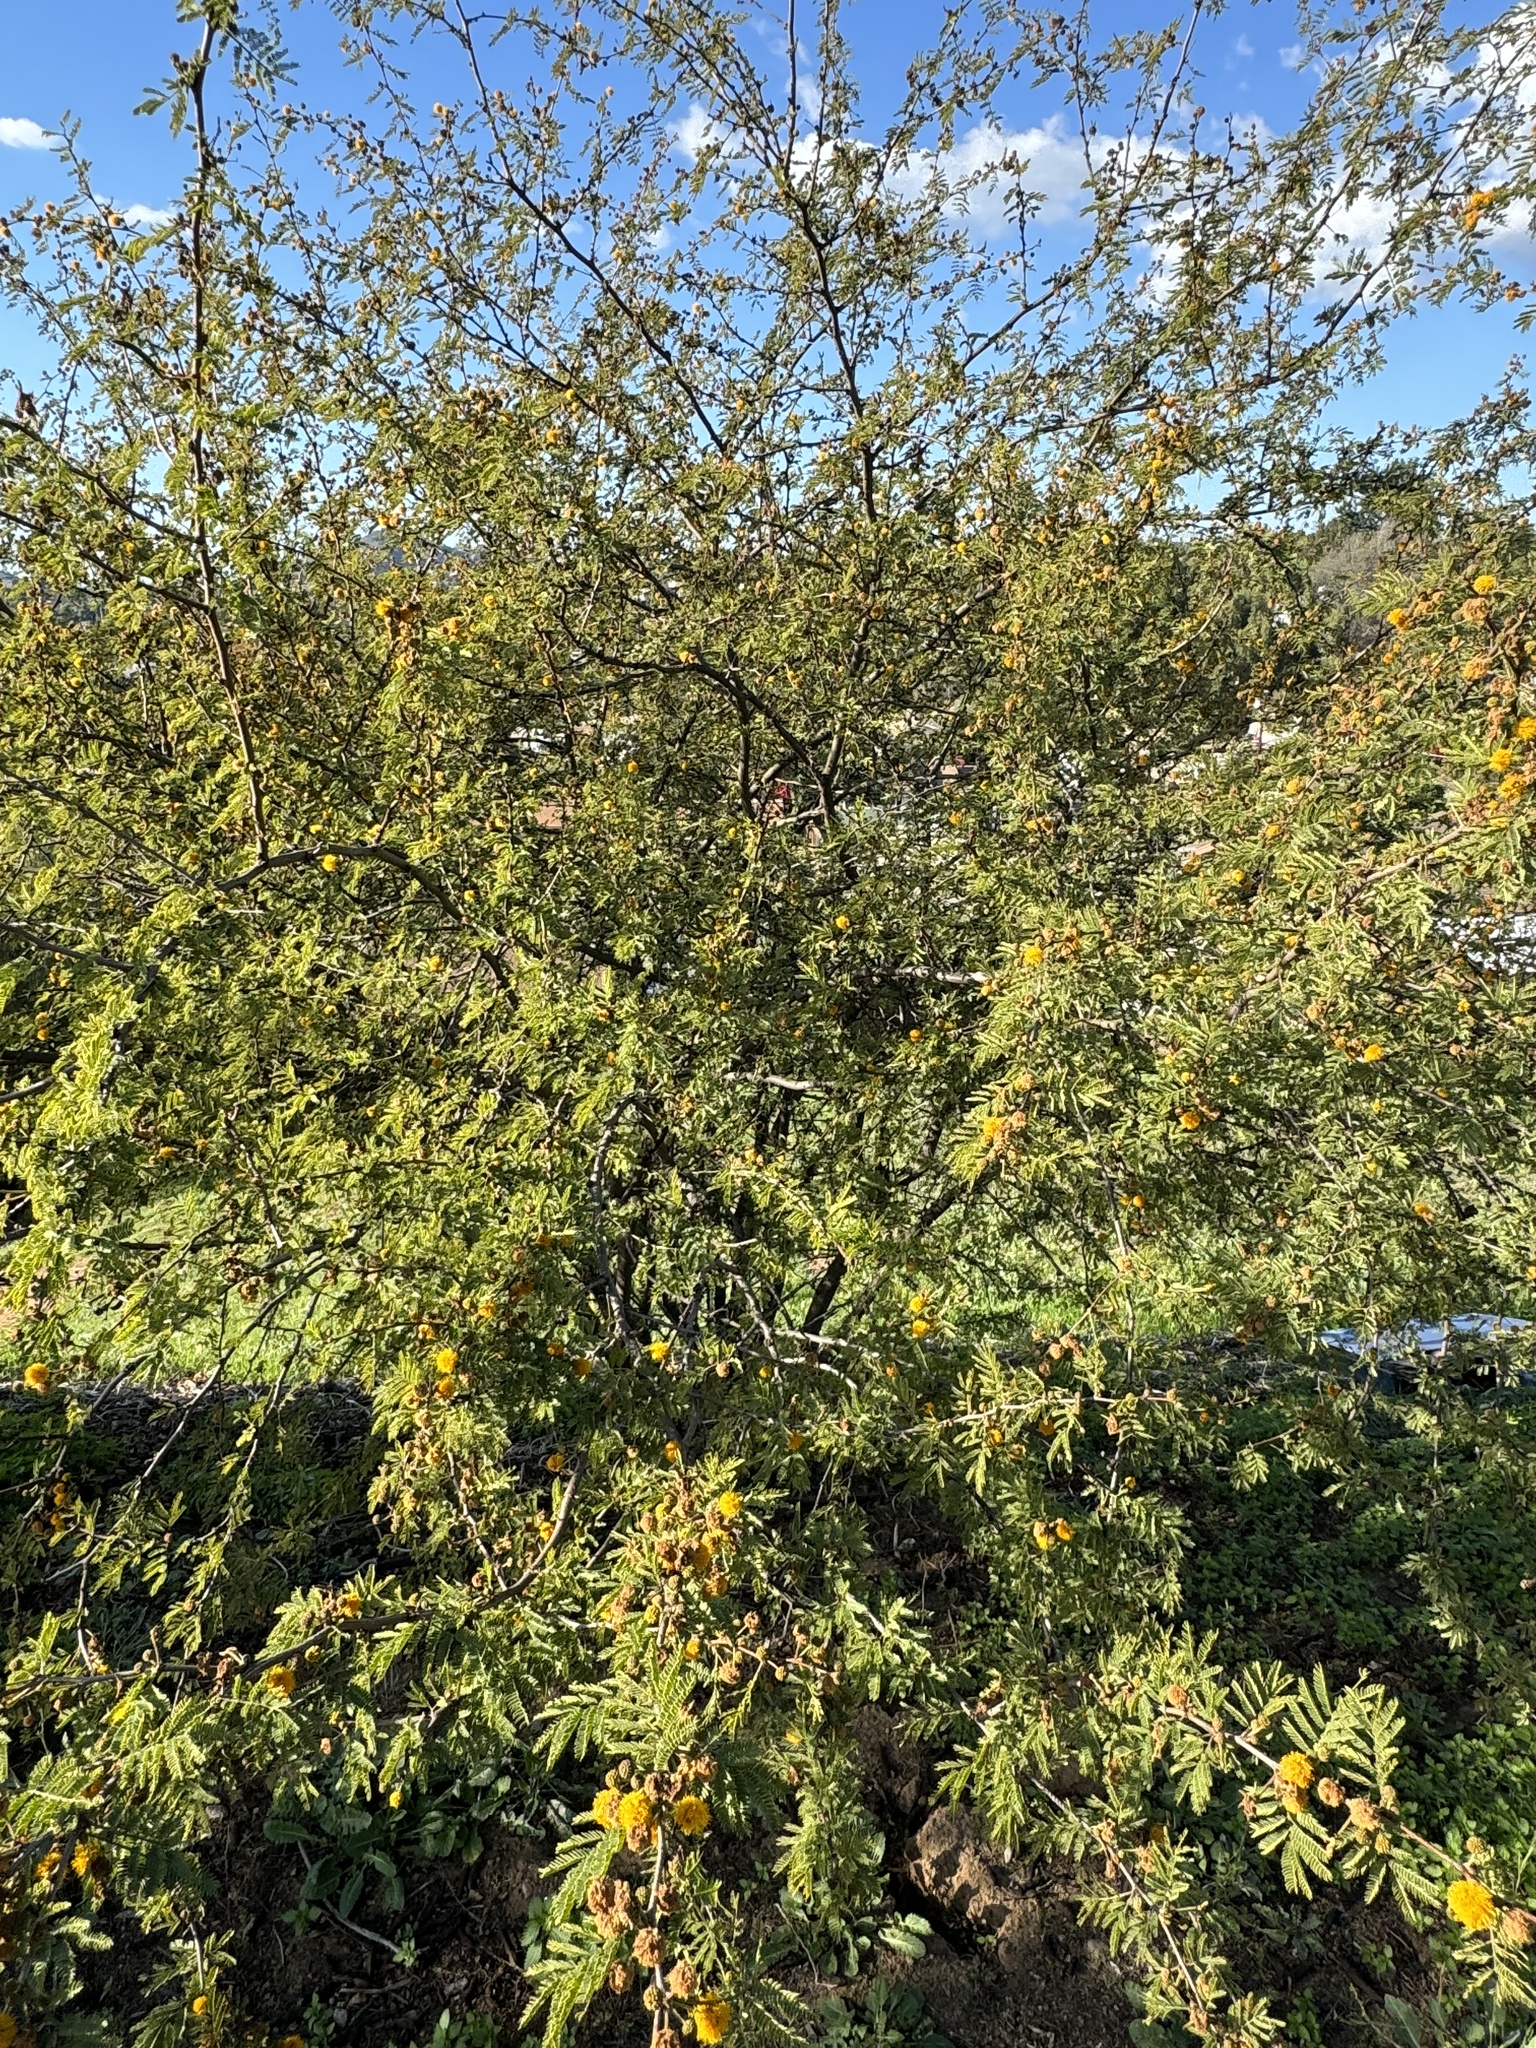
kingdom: Plantae
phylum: Tracheophyta
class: Magnoliopsida
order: Fabales
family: Fabaceae
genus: Vachellia
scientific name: Vachellia farnesiana
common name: Sweet acacia
